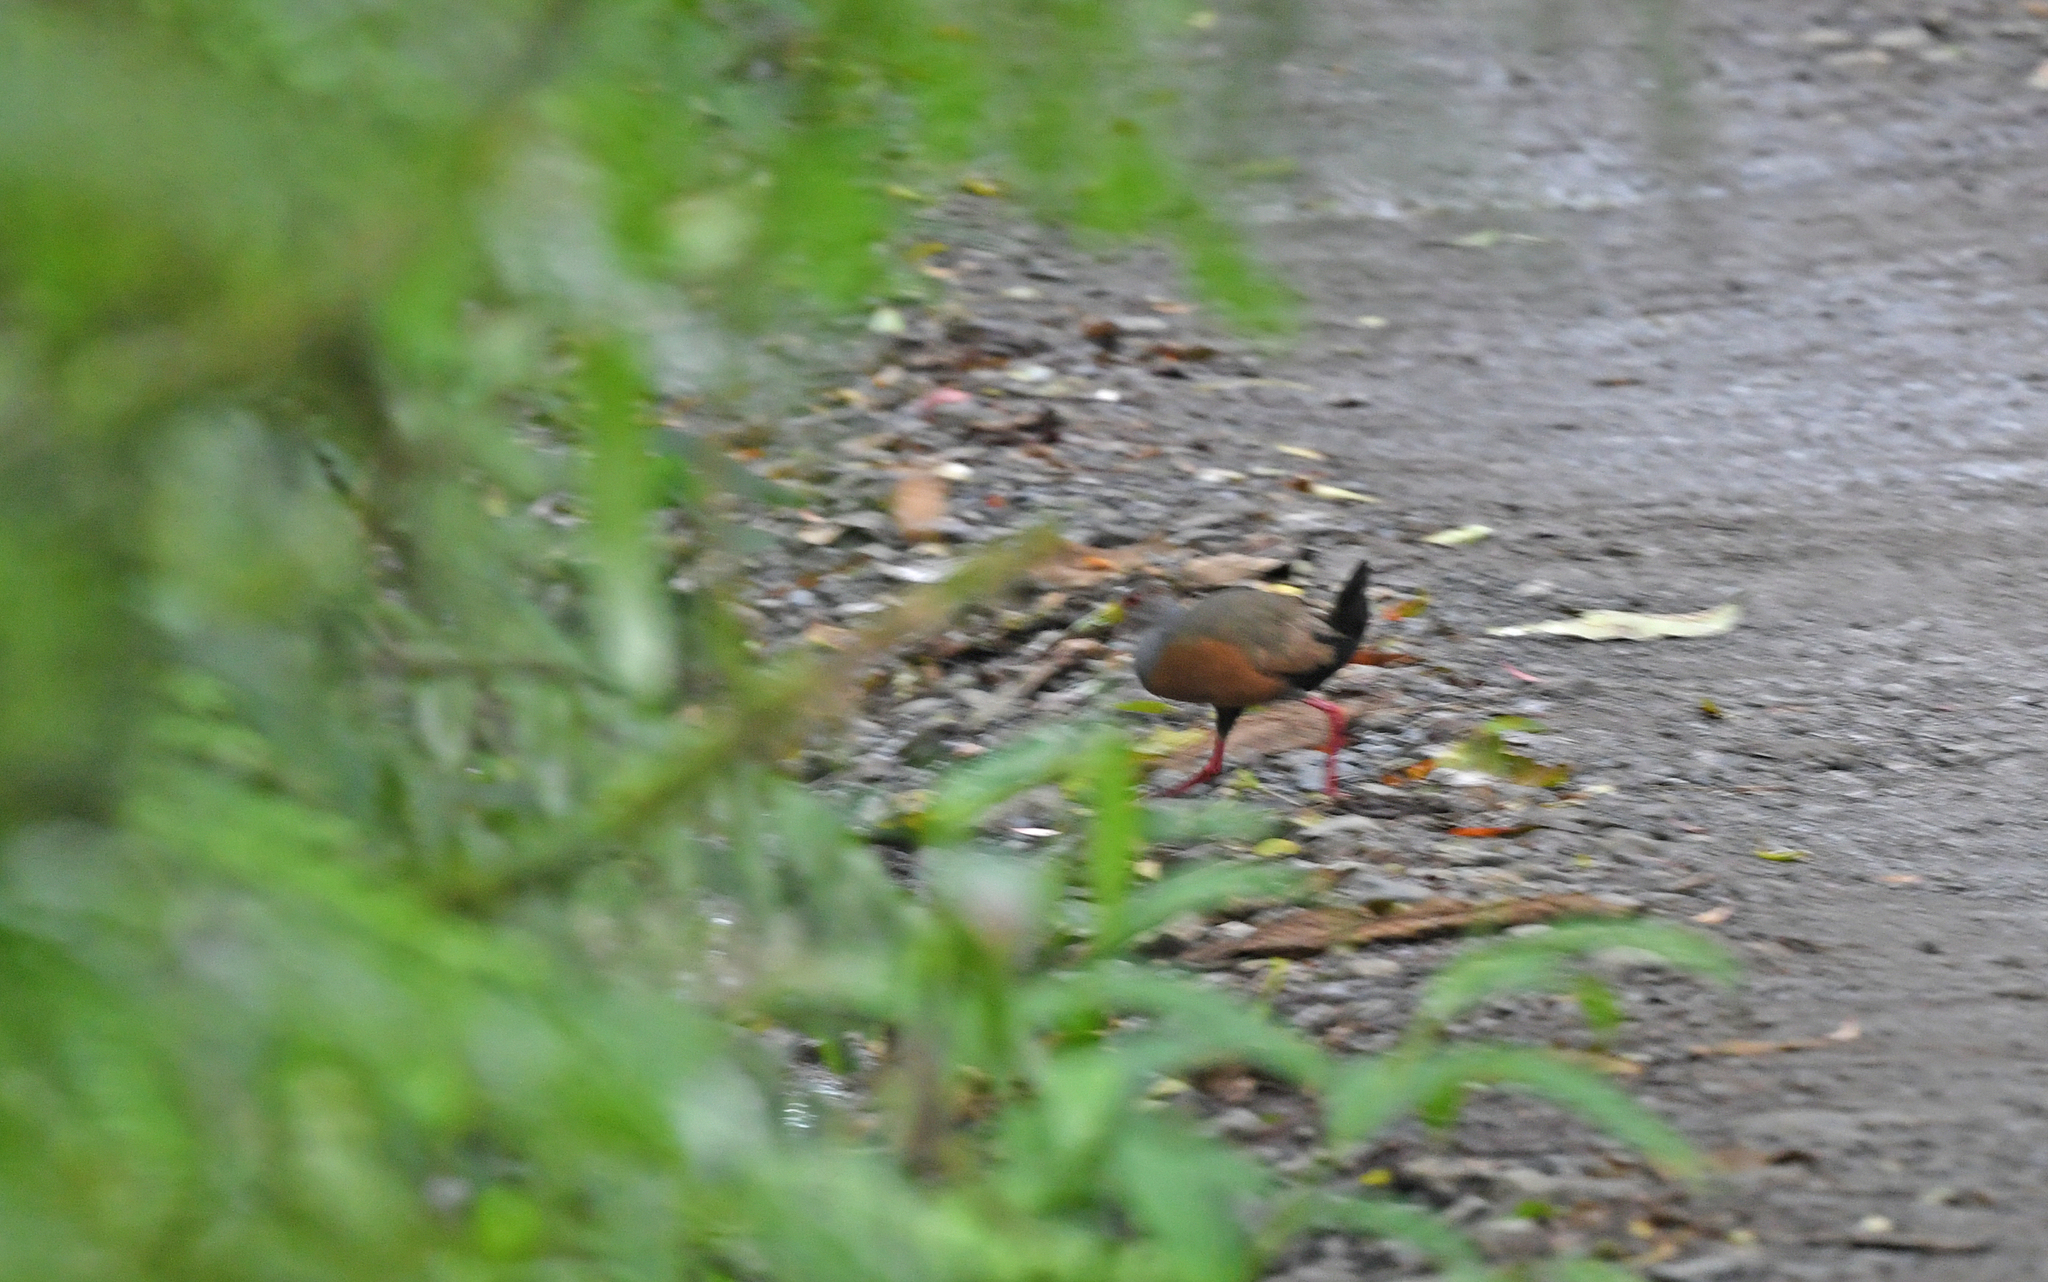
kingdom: Animalia
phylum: Chordata
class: Aves
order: Gruiformes
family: Rallidae
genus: Aramides
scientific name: Aramides cajanea
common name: Gray-necked wood-rail
